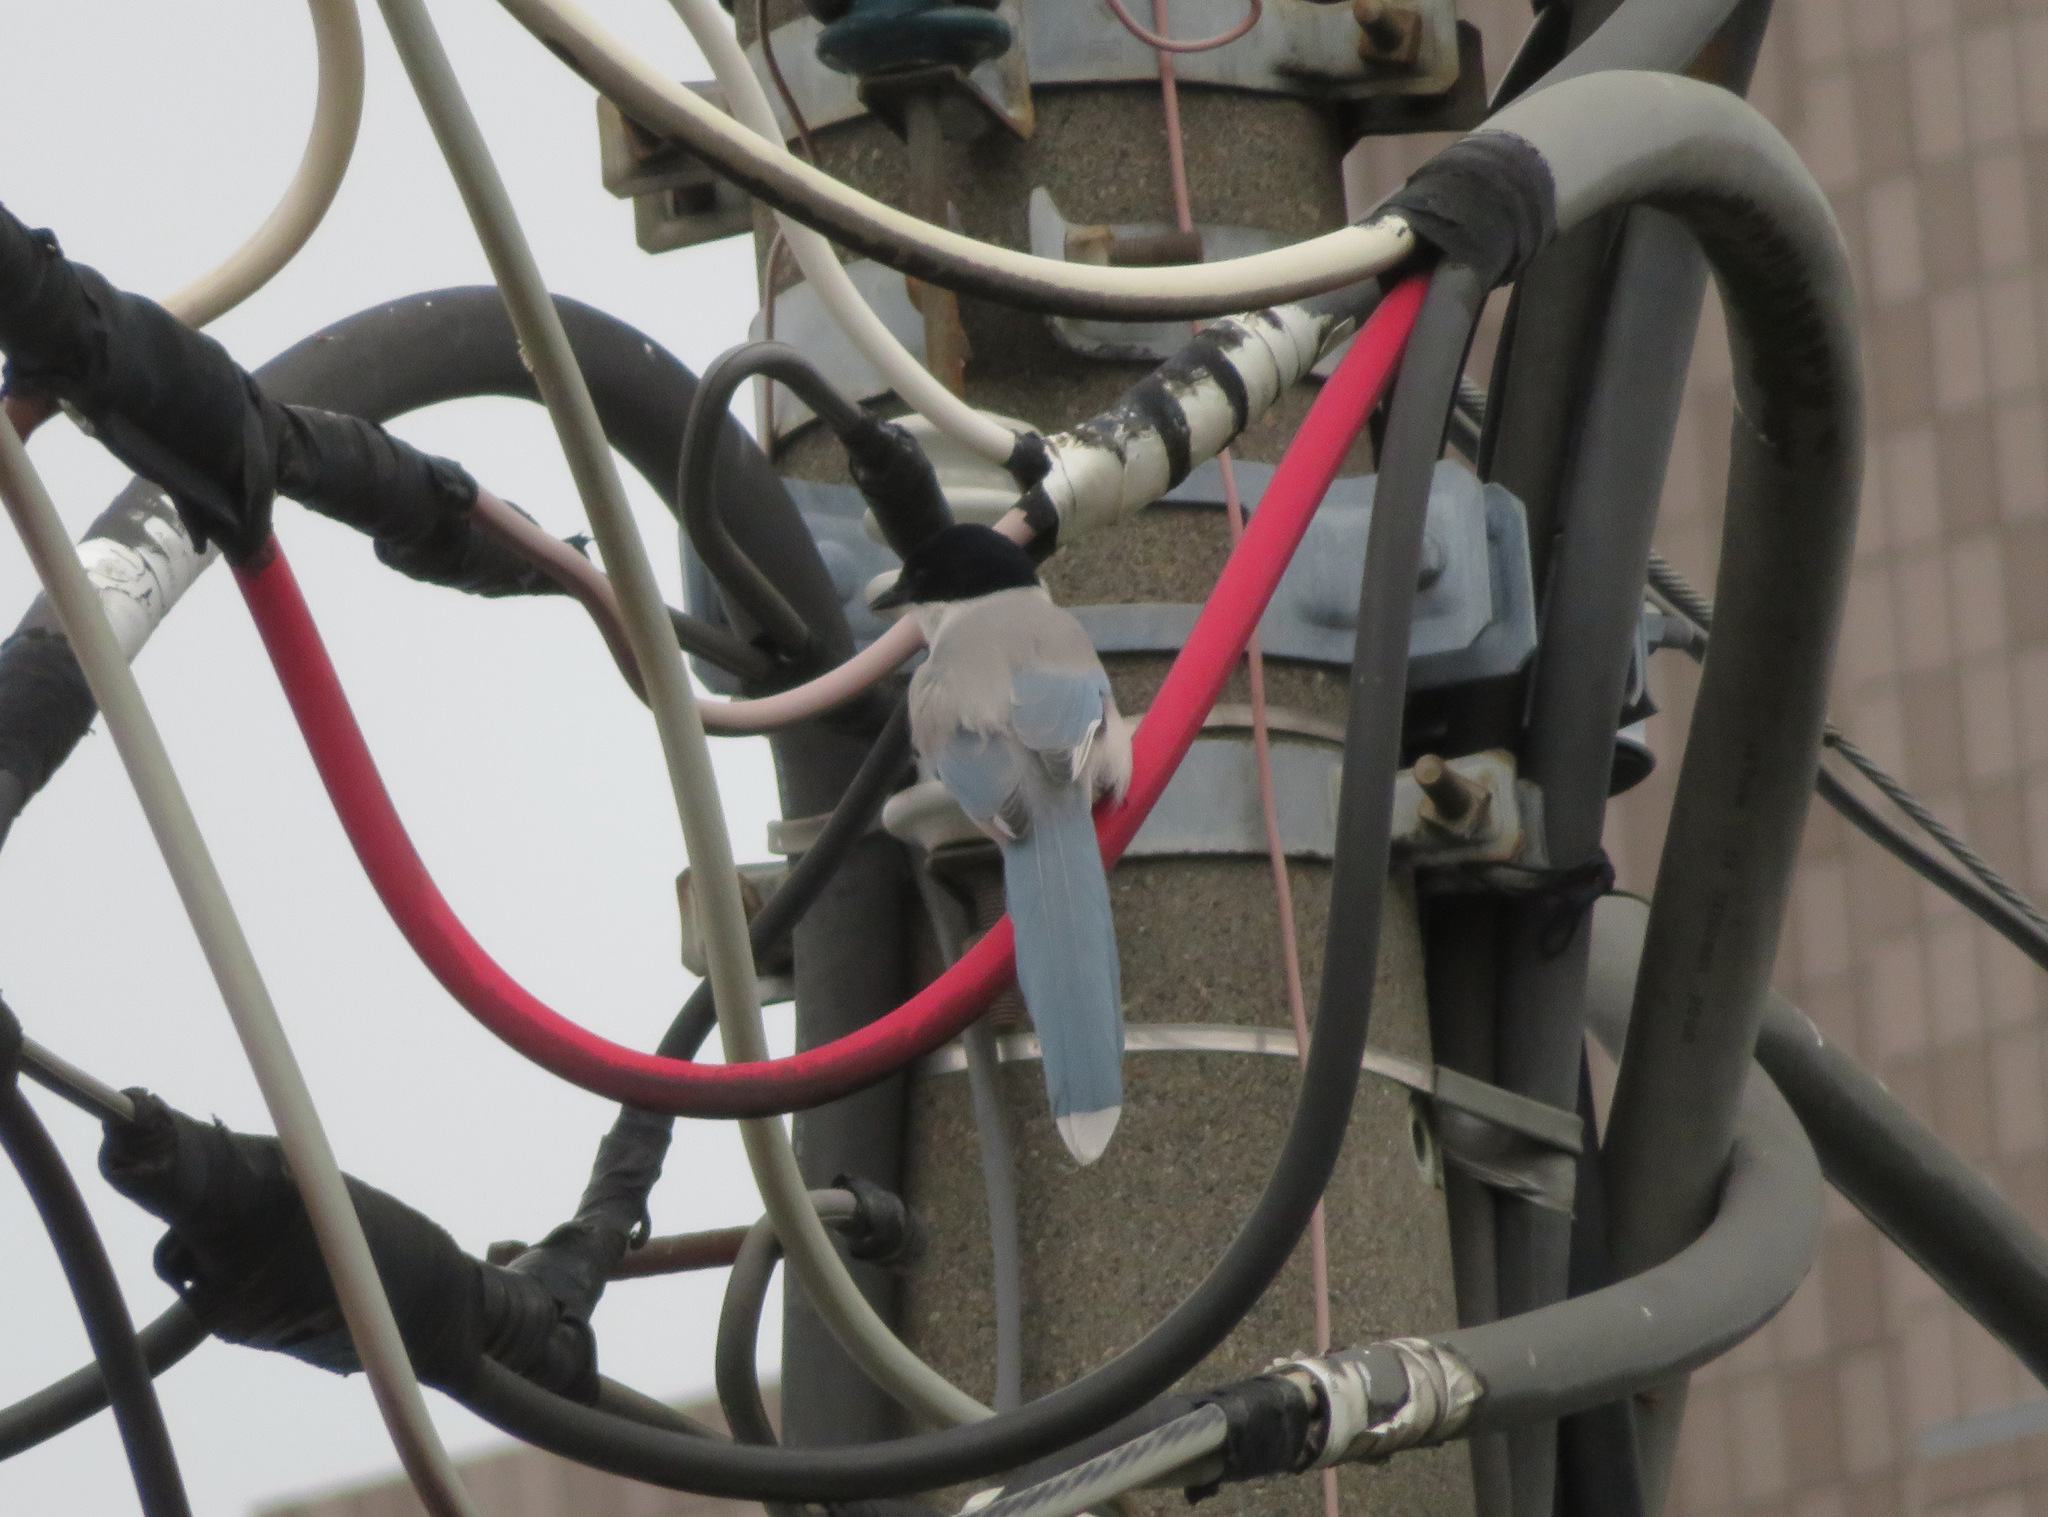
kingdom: Animalia
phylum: Chordata
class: Aves
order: Passeriformes
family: Corvidae
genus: Cyanopica
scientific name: Cyanopica cyanus
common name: Azure-winged magpie
